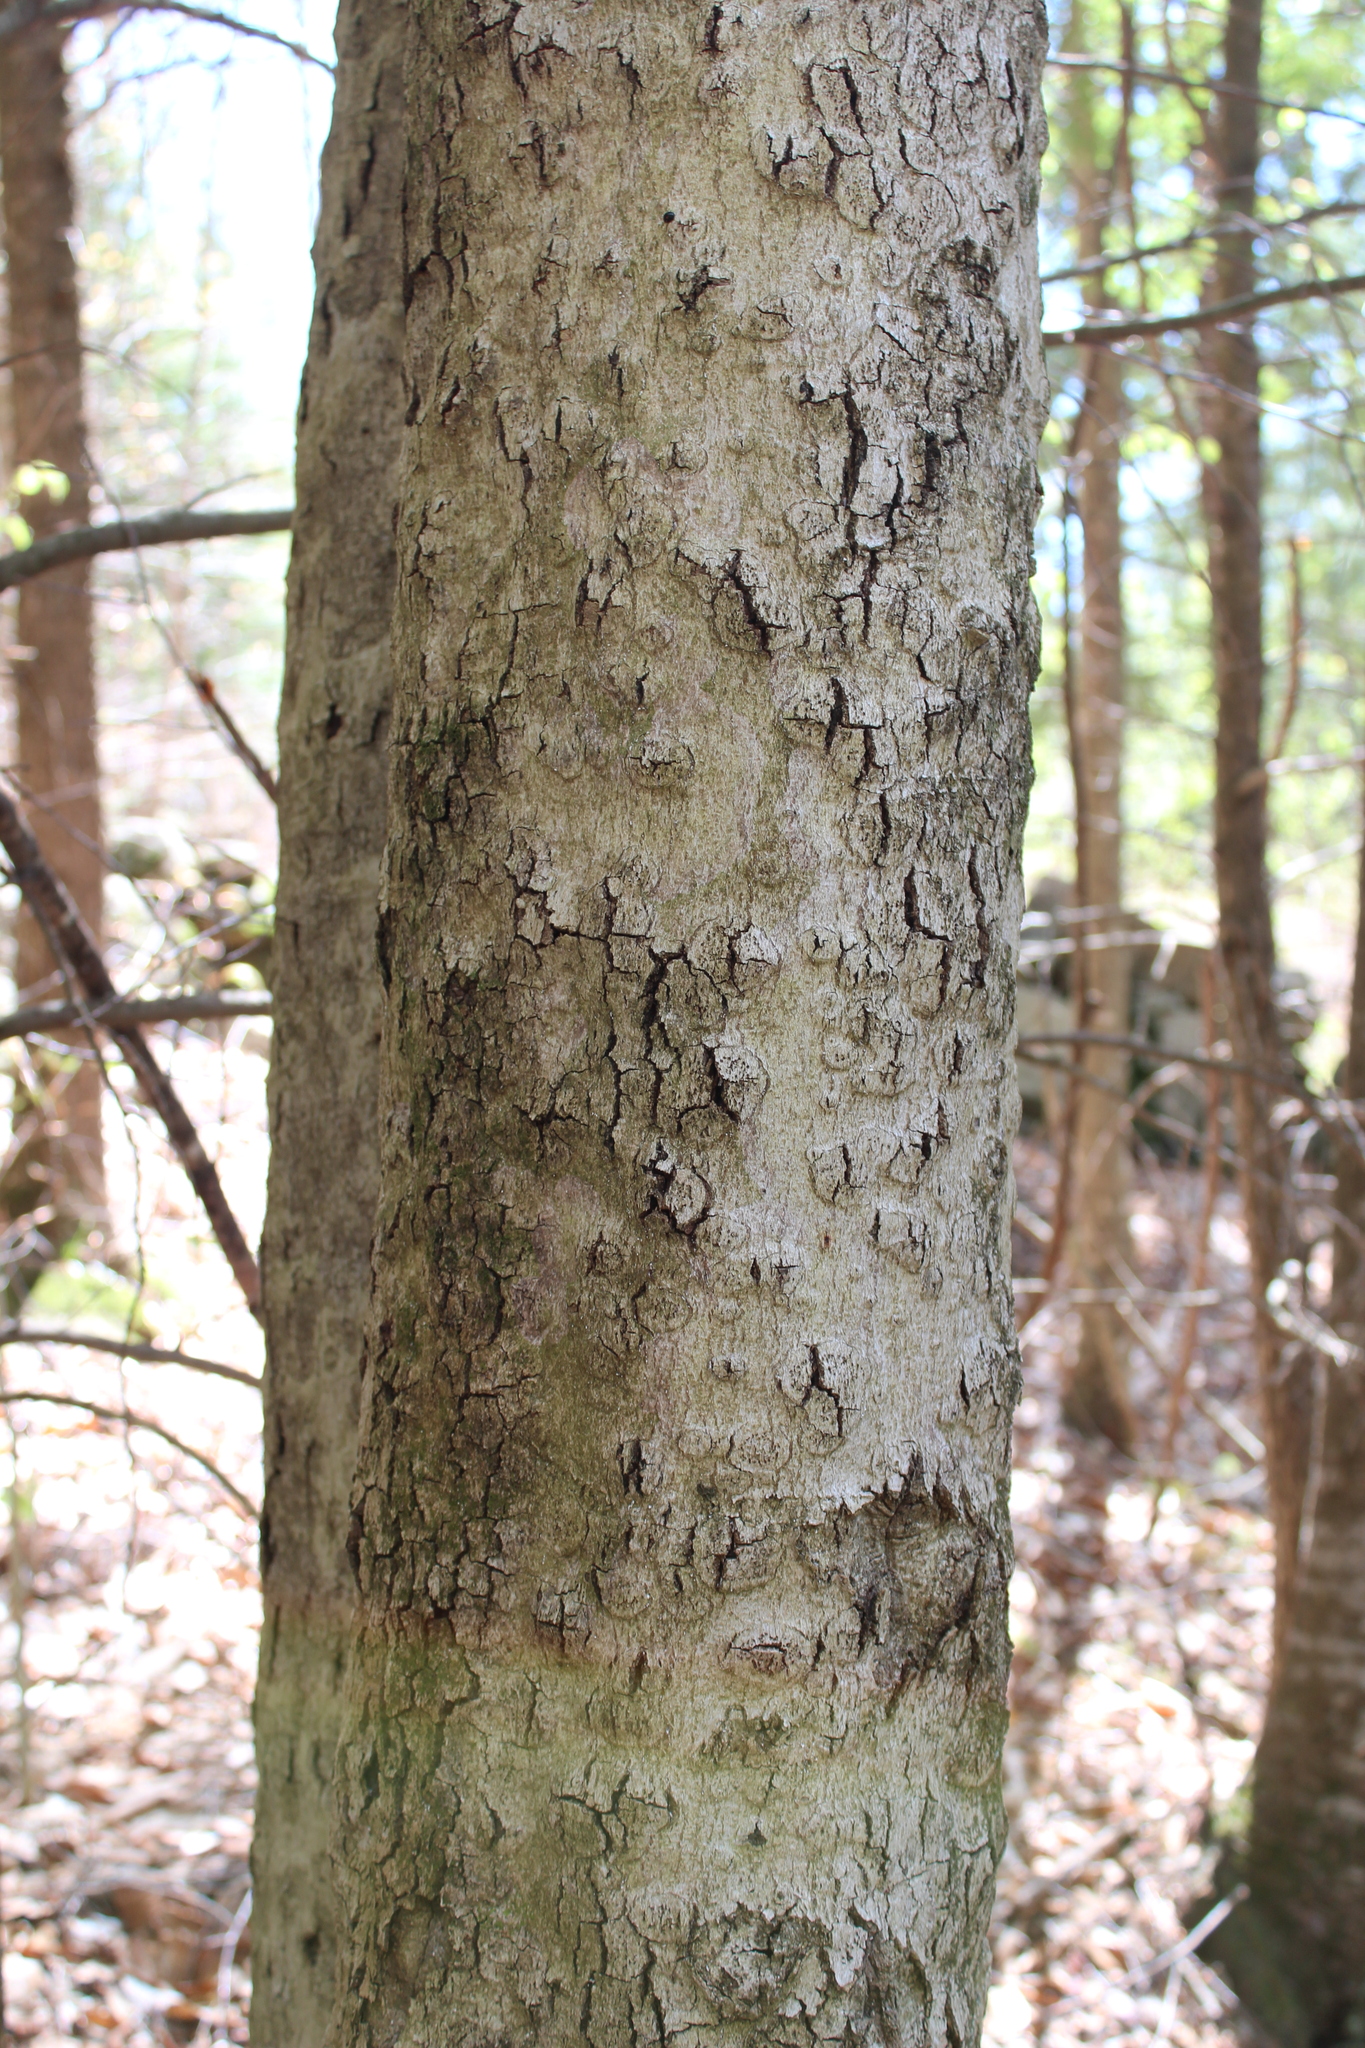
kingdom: Fungi
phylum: Ascomycota
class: Sordariomycetes
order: Hypocreales
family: Nectriaceae
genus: Neonectria
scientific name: Neonectria faginata
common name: Beech bark canker
